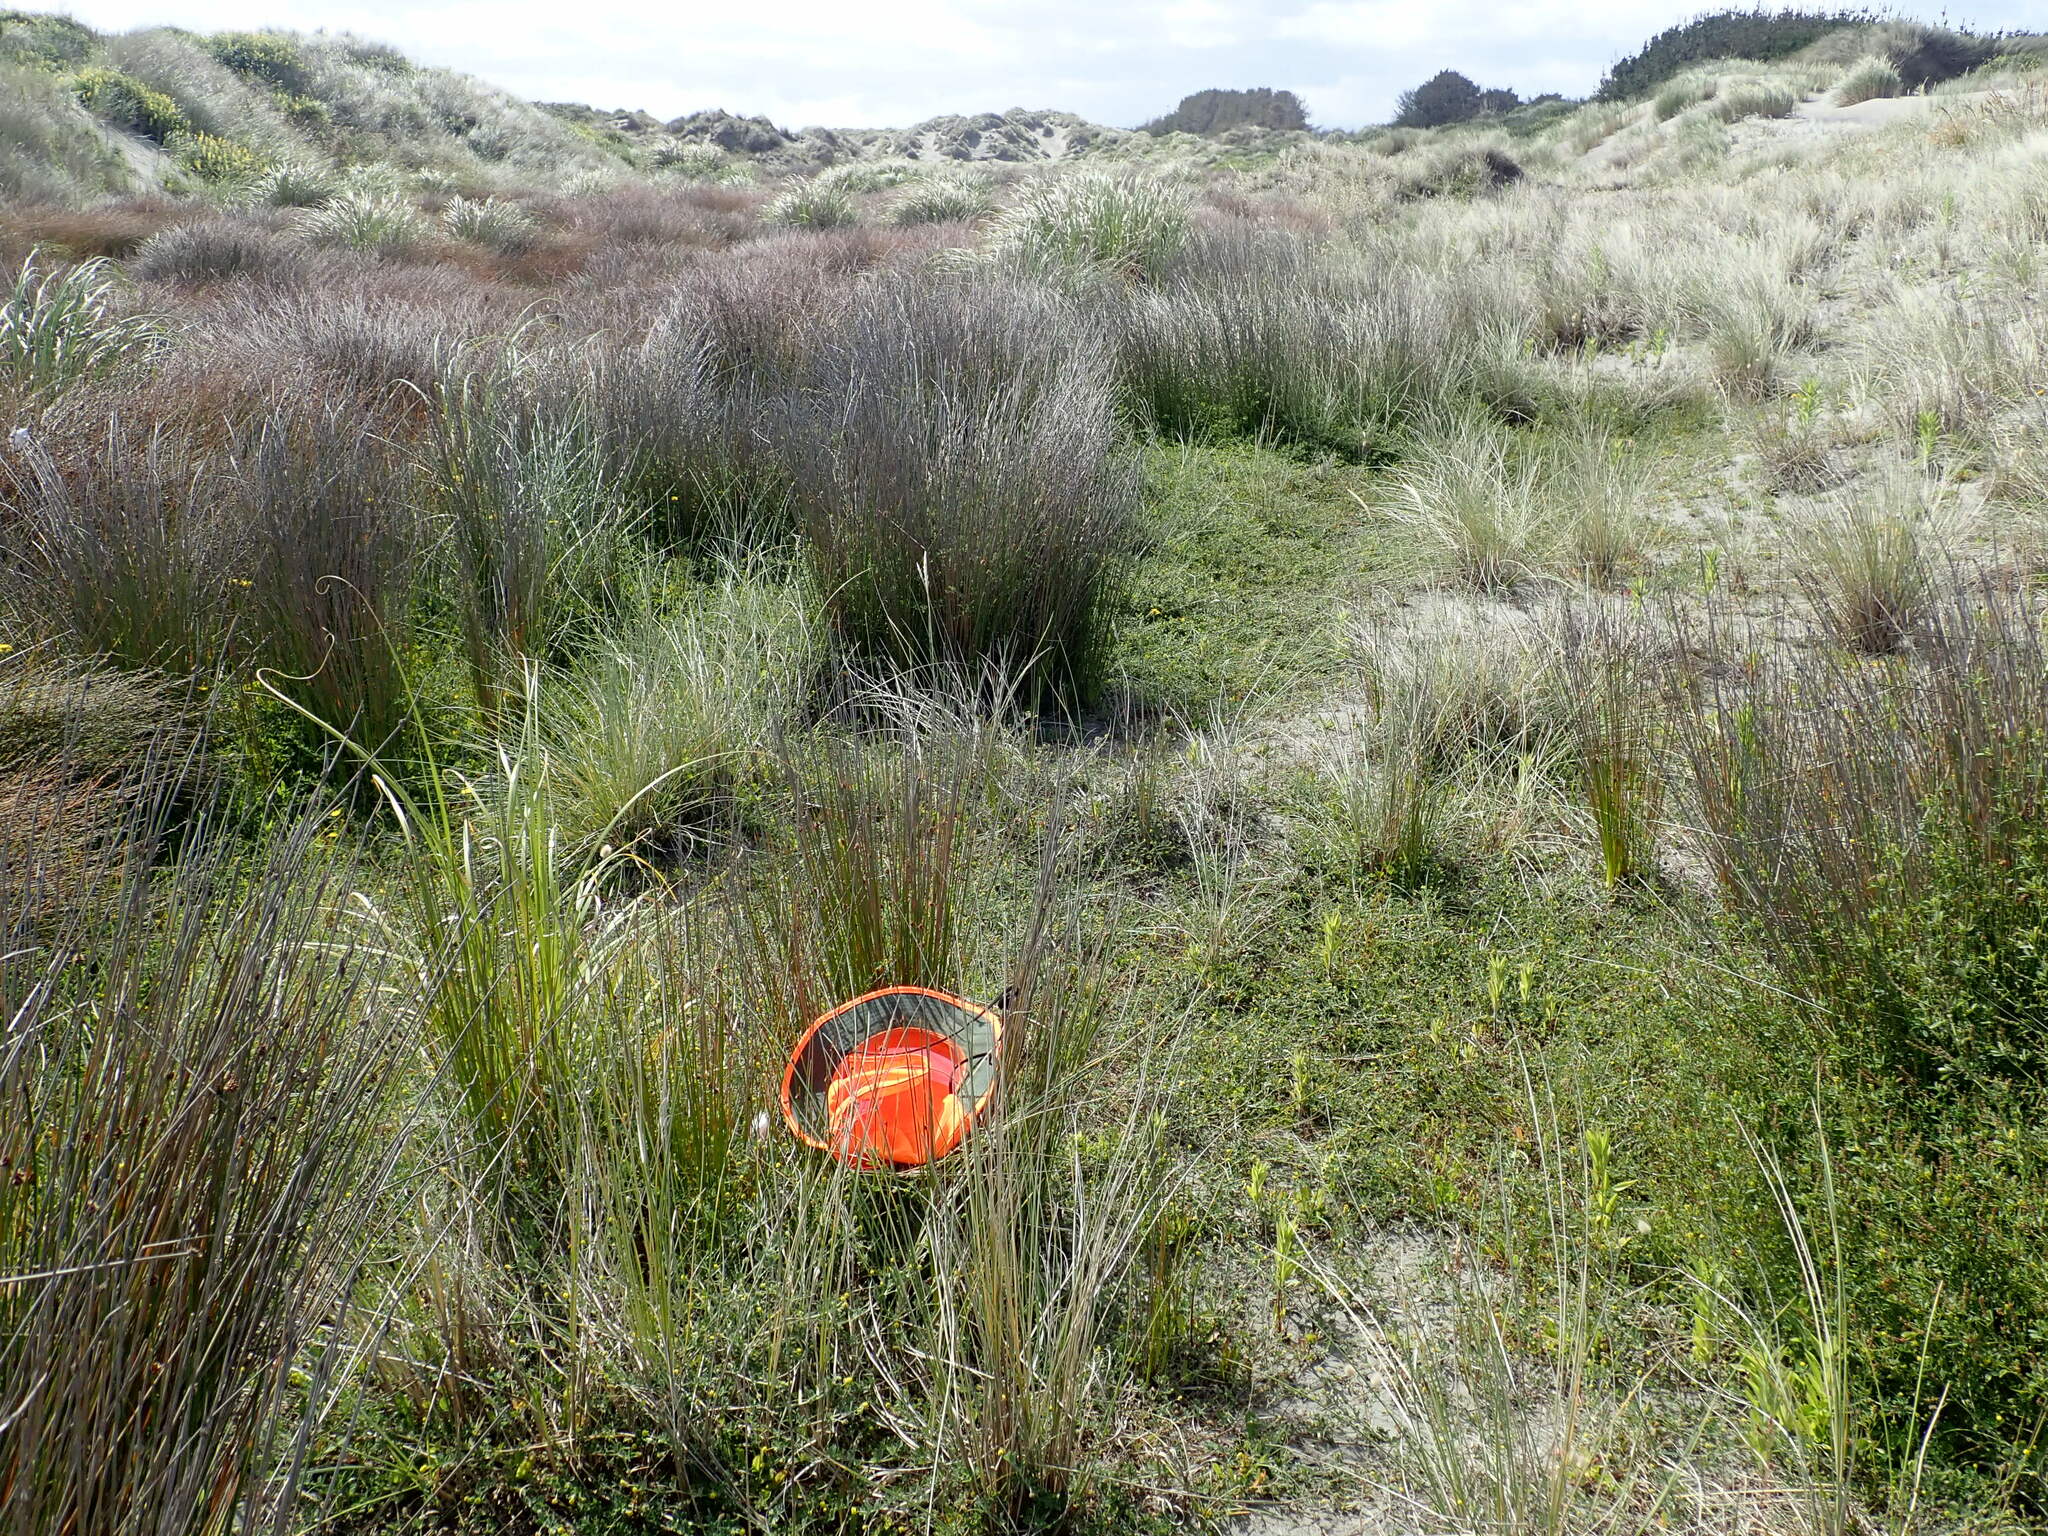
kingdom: Animalia
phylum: Arthropoda
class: Arachnida
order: Araneae
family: Pisauridae
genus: Dolomedes
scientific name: Dolomedes minor
